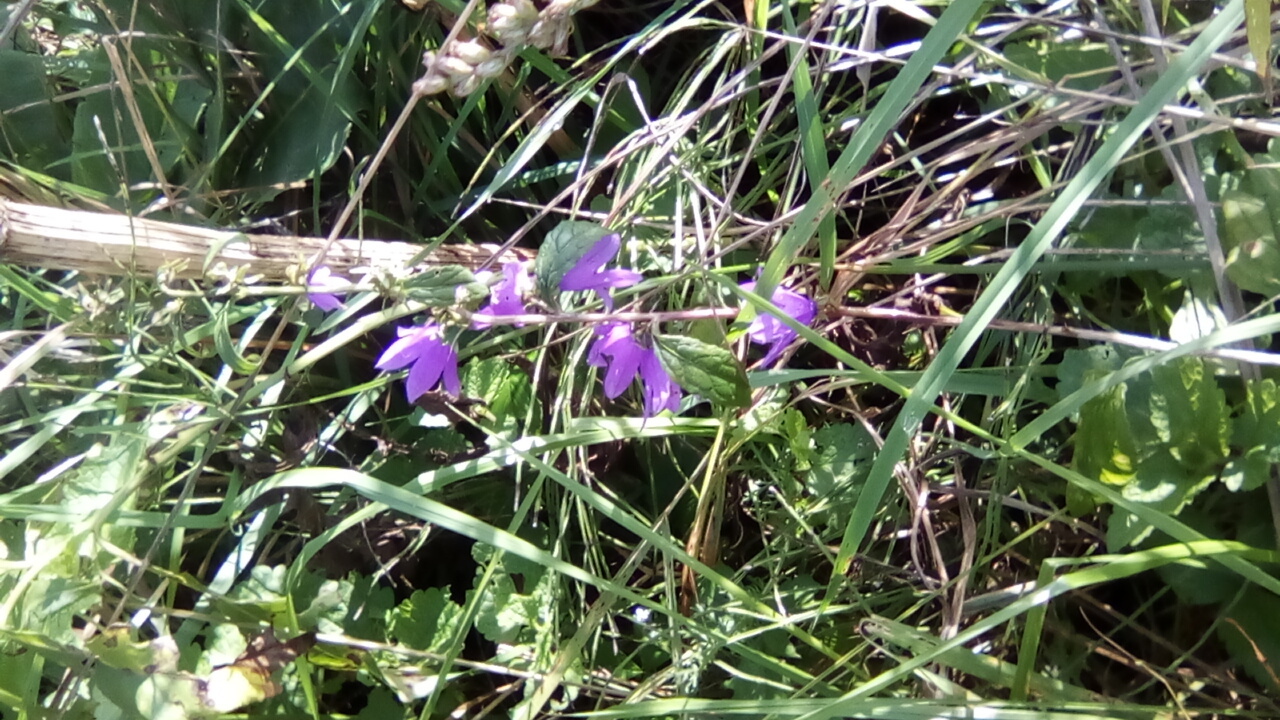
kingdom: Plantae
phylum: Tracheophyta
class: Magnoliopsida
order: Asterales
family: Campanulaceae
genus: Campanula
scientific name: Campanula rapunculoides
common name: Creeping bellflower
